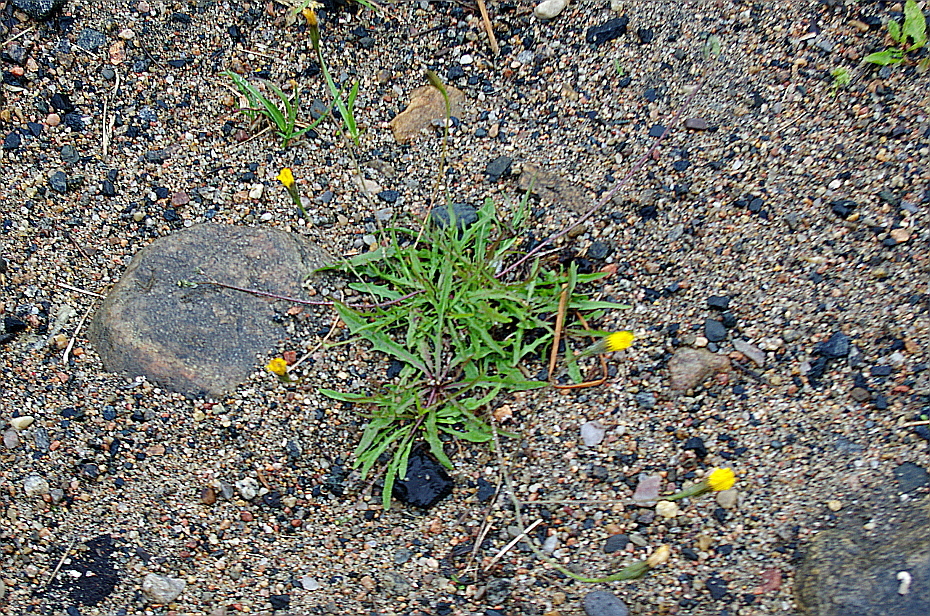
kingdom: Plantae
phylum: Tracheophyta
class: Magnoliopsida
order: Asterales
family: Asteraceae
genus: Scorzoneroides
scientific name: Scorzoneroides autumnalis
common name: Autumn hawkbit
